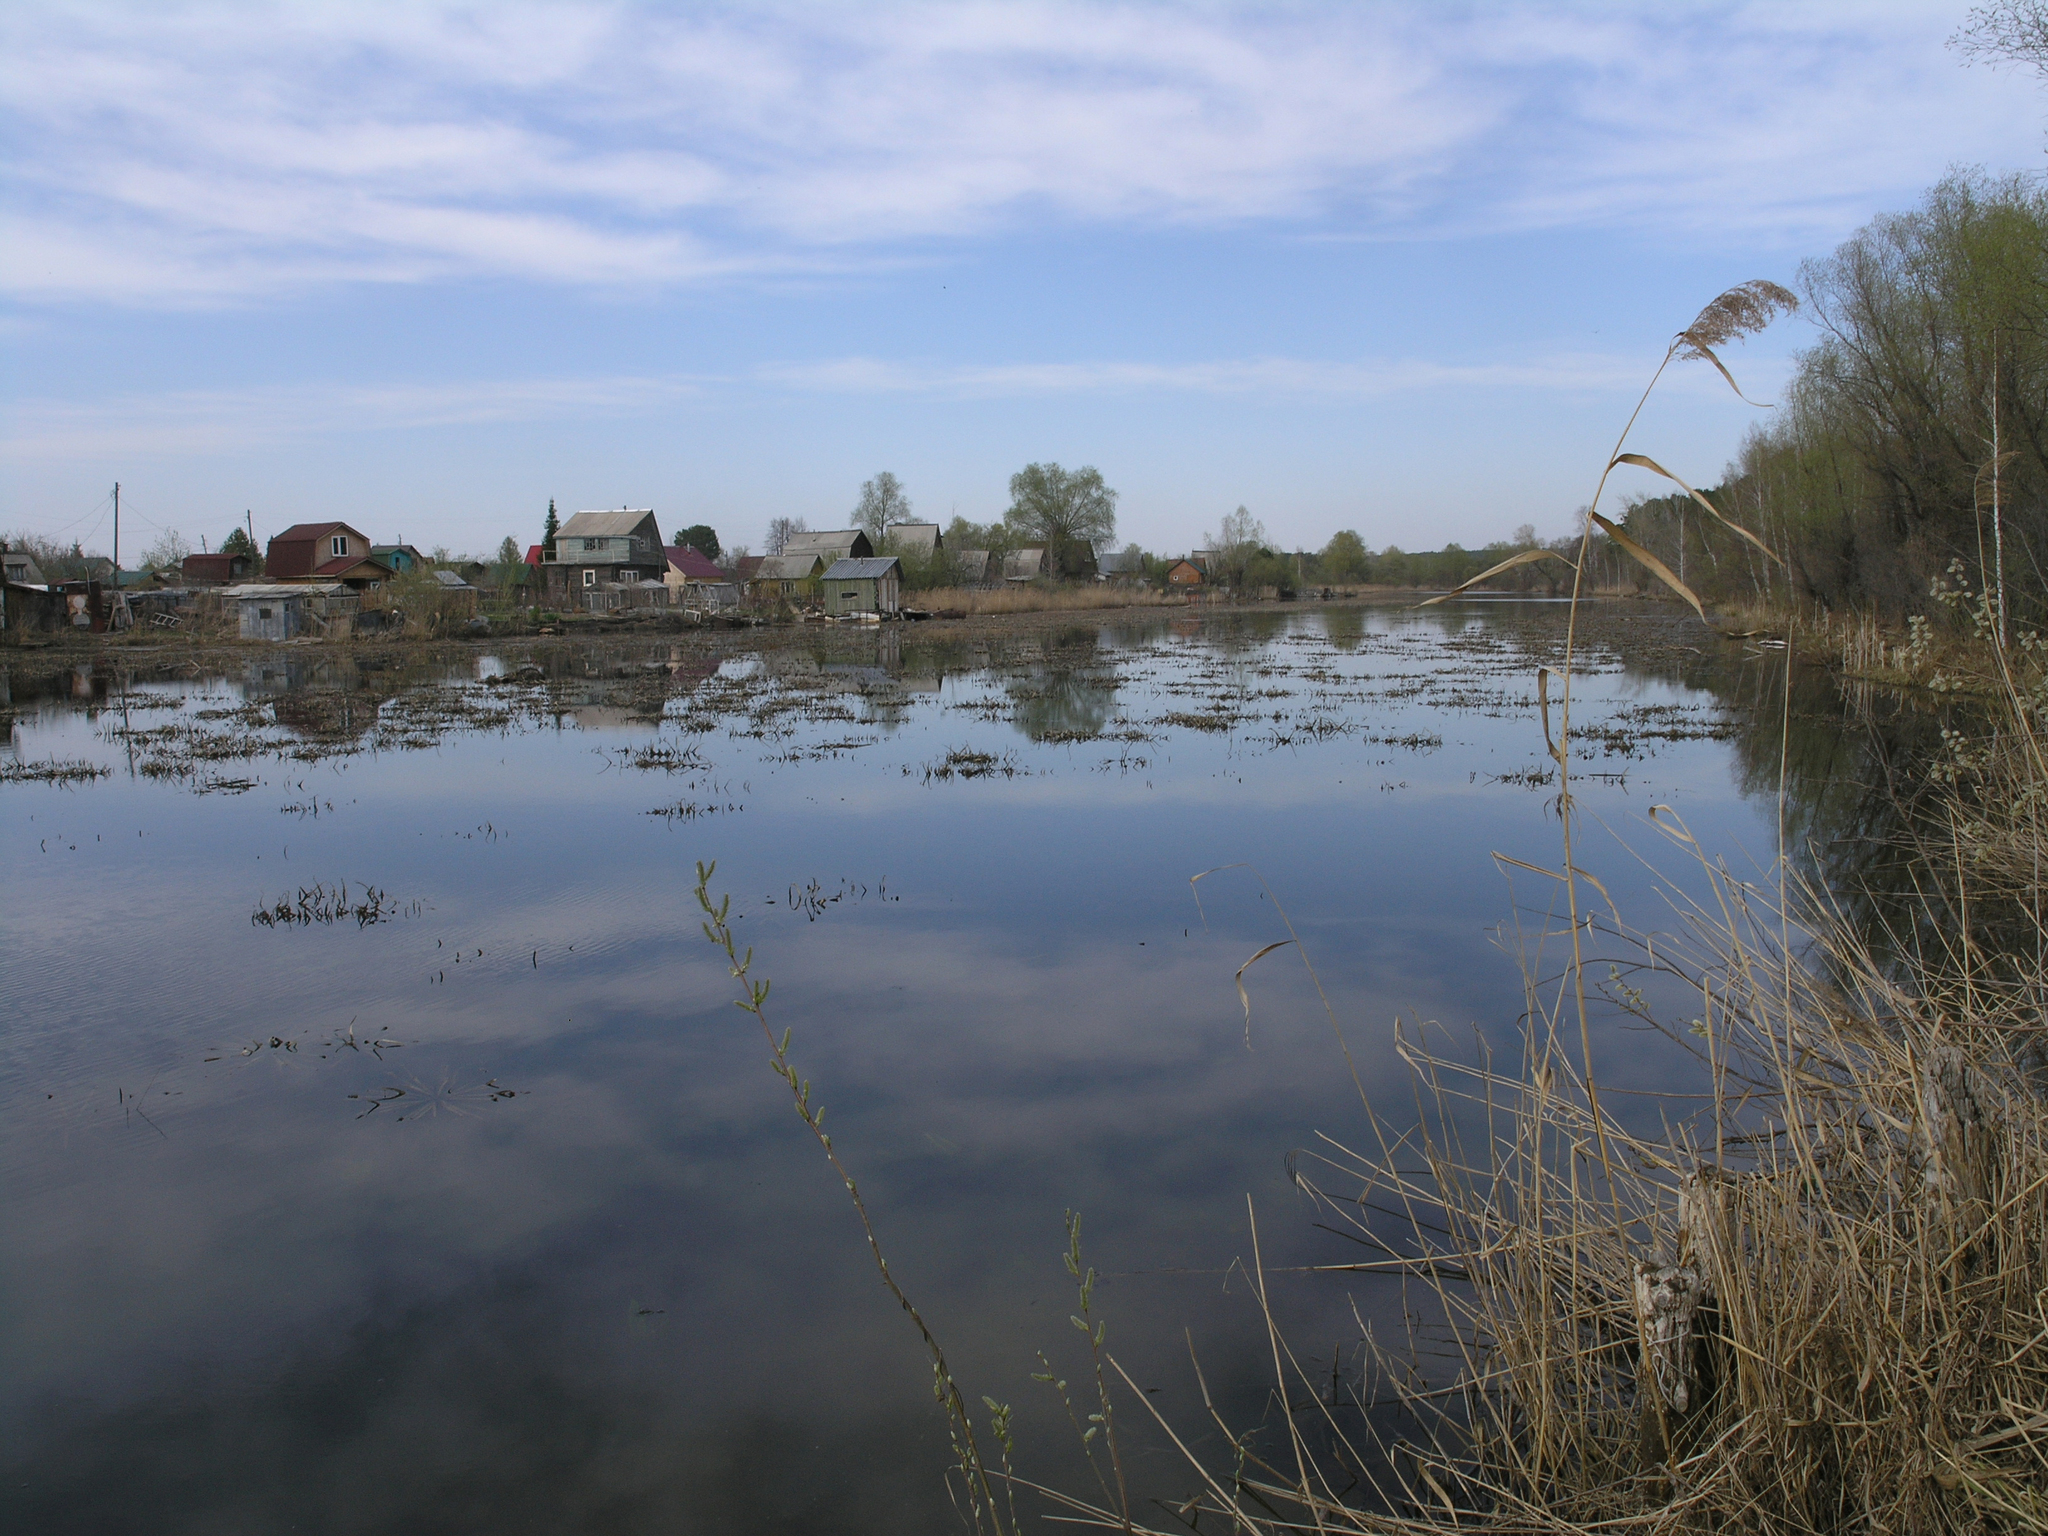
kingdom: Plantae
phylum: Tracheophyta
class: Liliopsida
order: Poales
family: Poaceae
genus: Phragmites
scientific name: Phragmites australis
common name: Common reed
